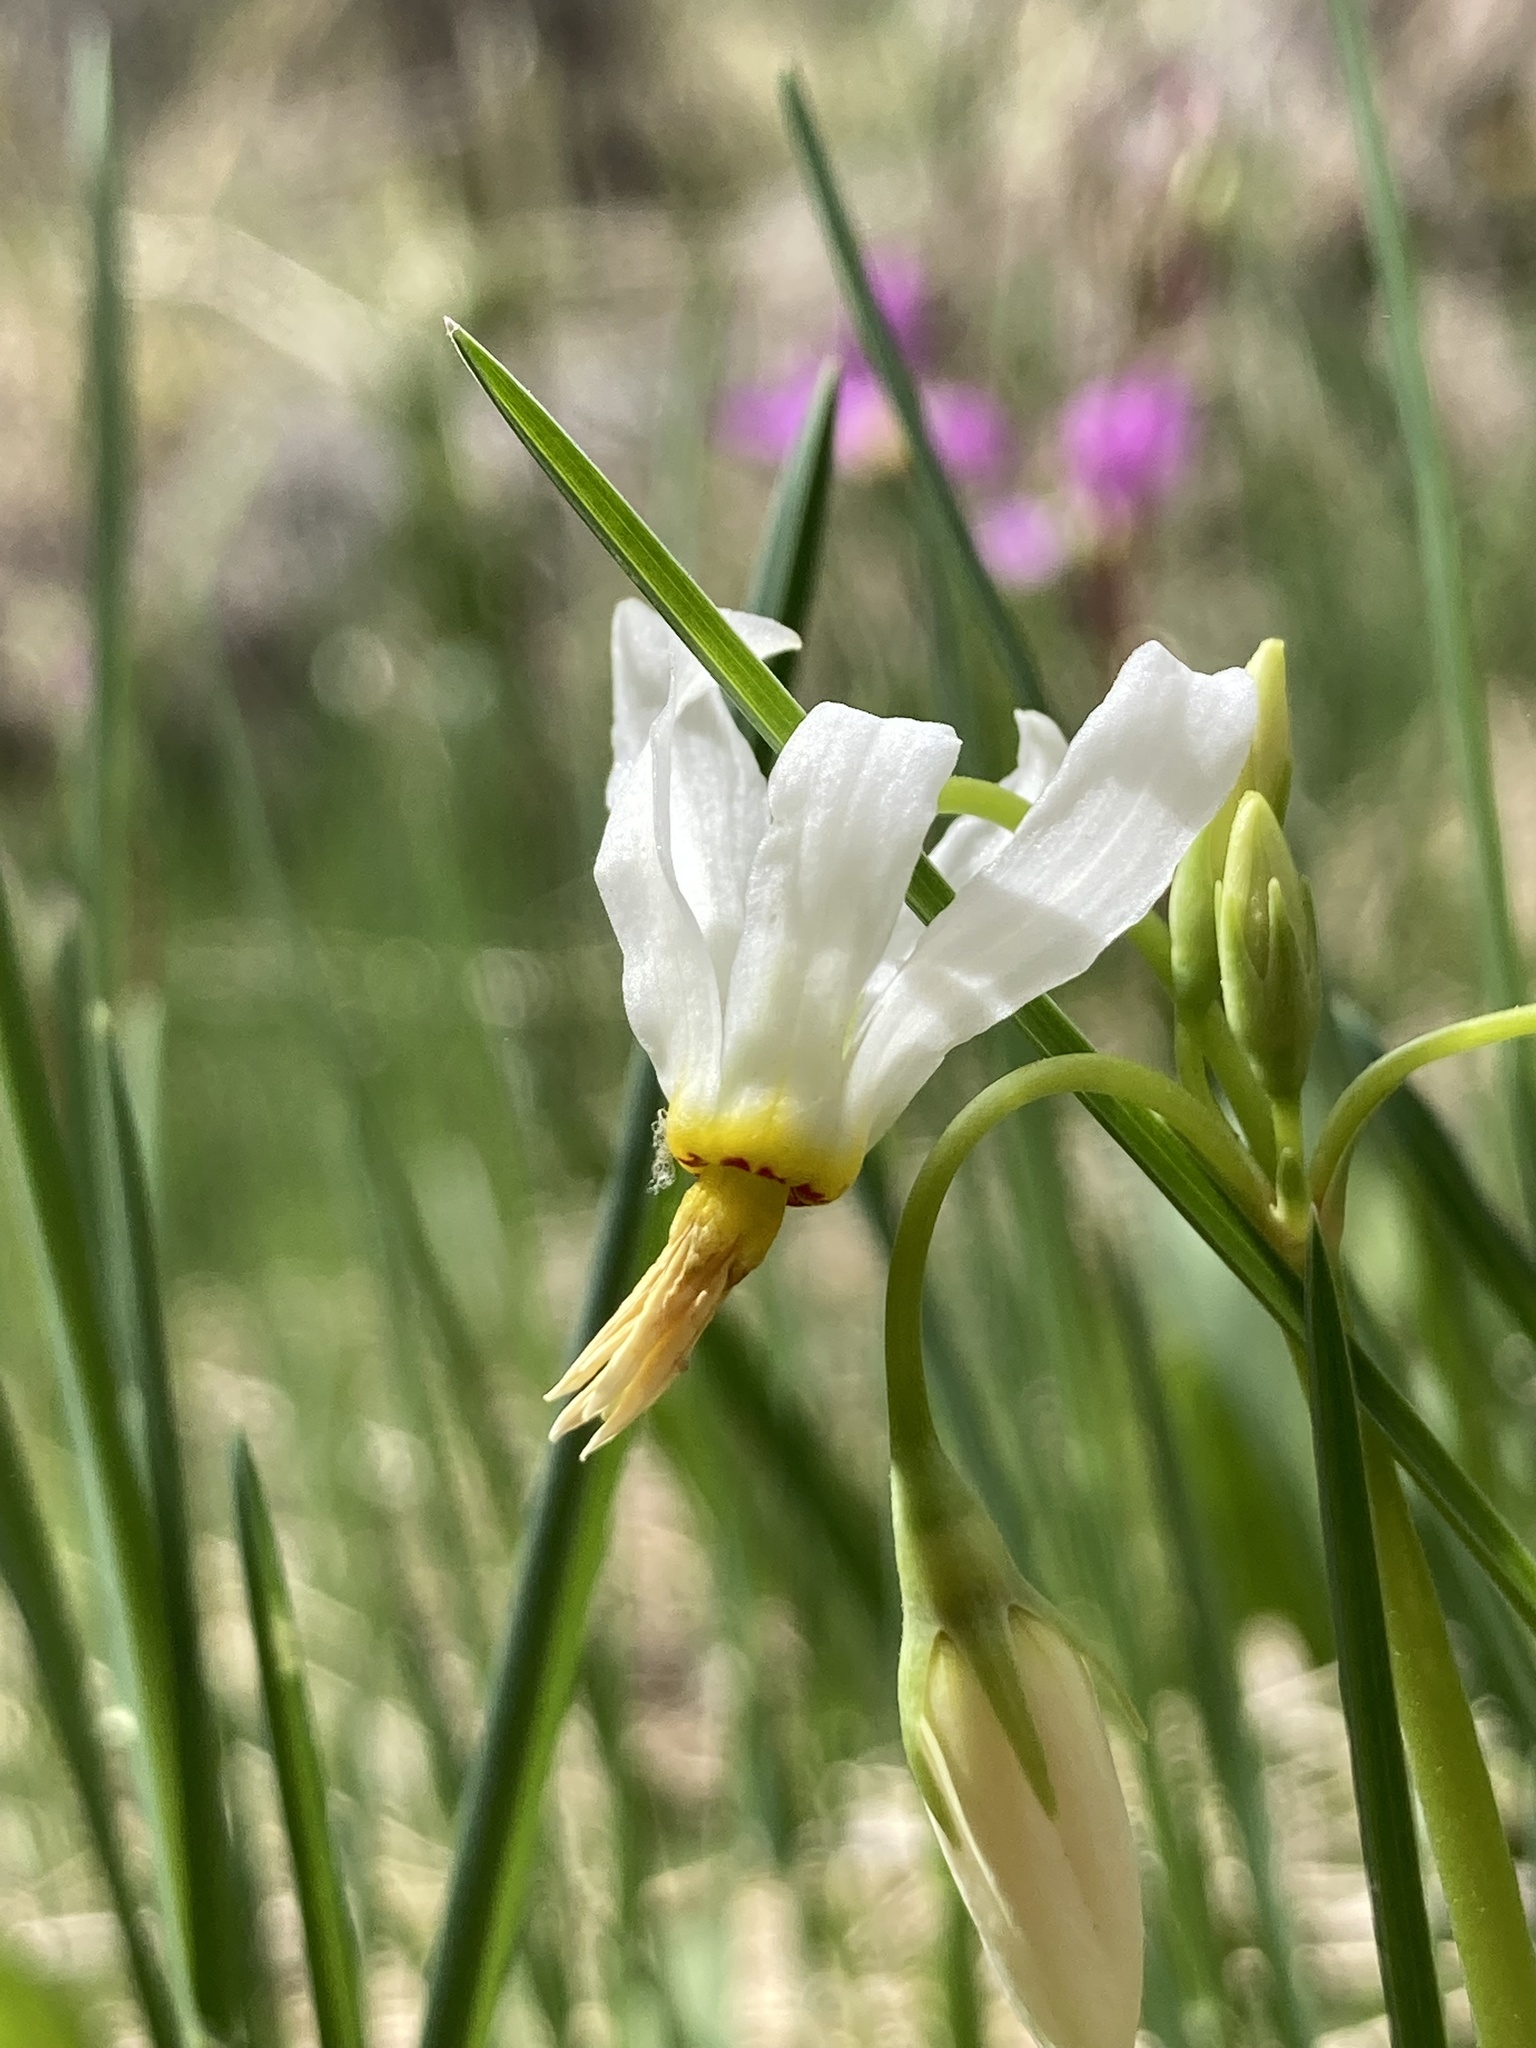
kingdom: Plantae
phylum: Tracheophyta
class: Magnoliopsida
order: Ericales
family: Primulaceae
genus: Dodecatheon
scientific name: Dodecatheon pulchellum
